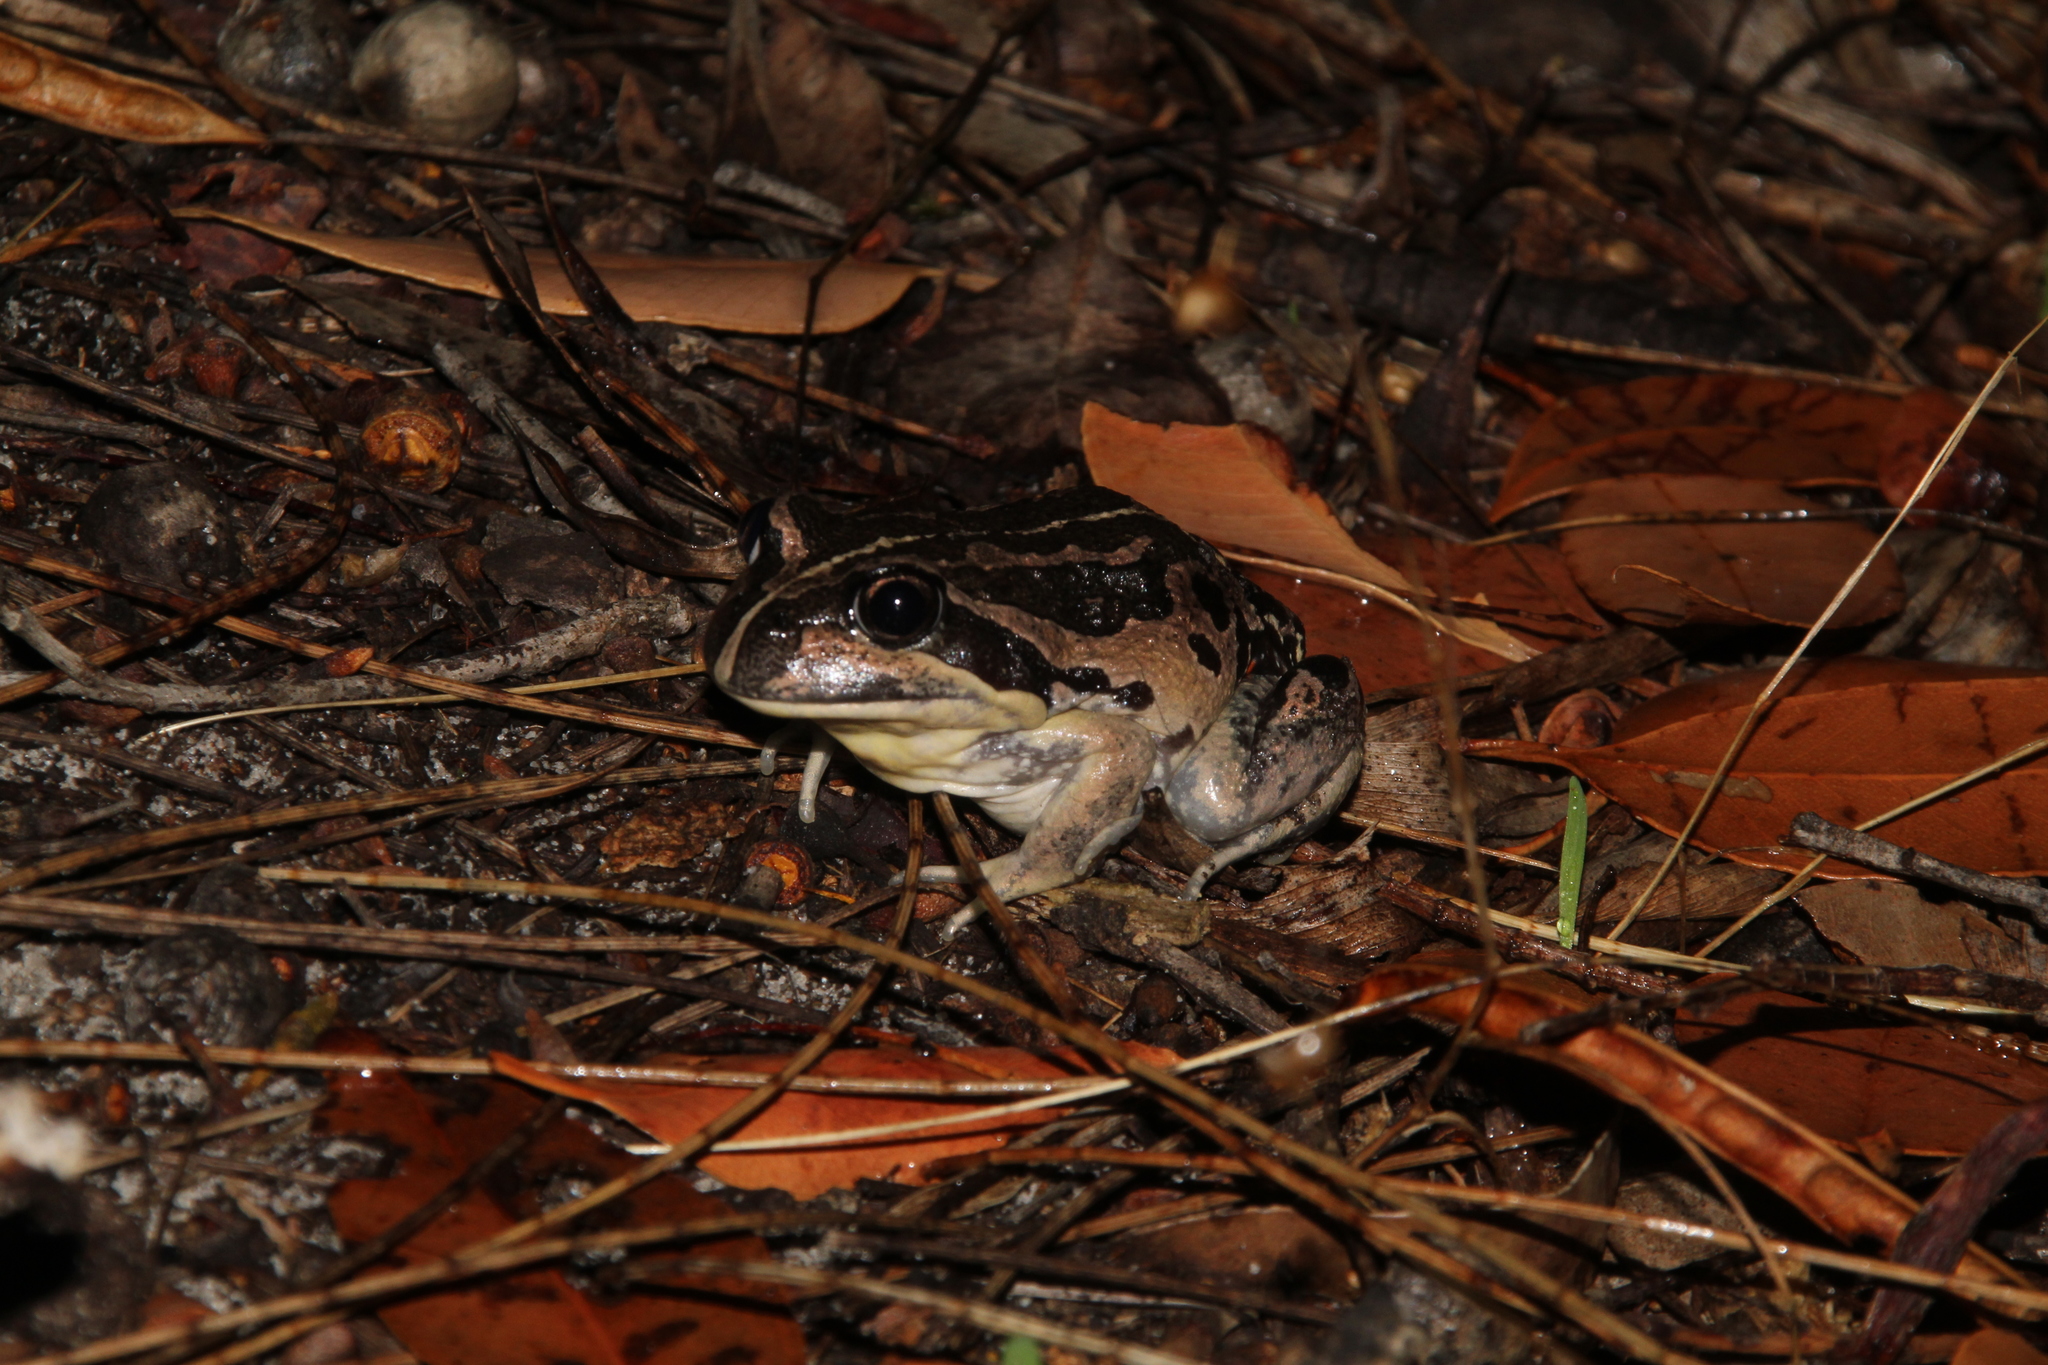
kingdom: Animalia
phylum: Chordata
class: Amphibia
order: Anura
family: Limnodynastidae
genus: Limnodynastes
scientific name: Limnodynastes dorsalis
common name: Banjo frog
